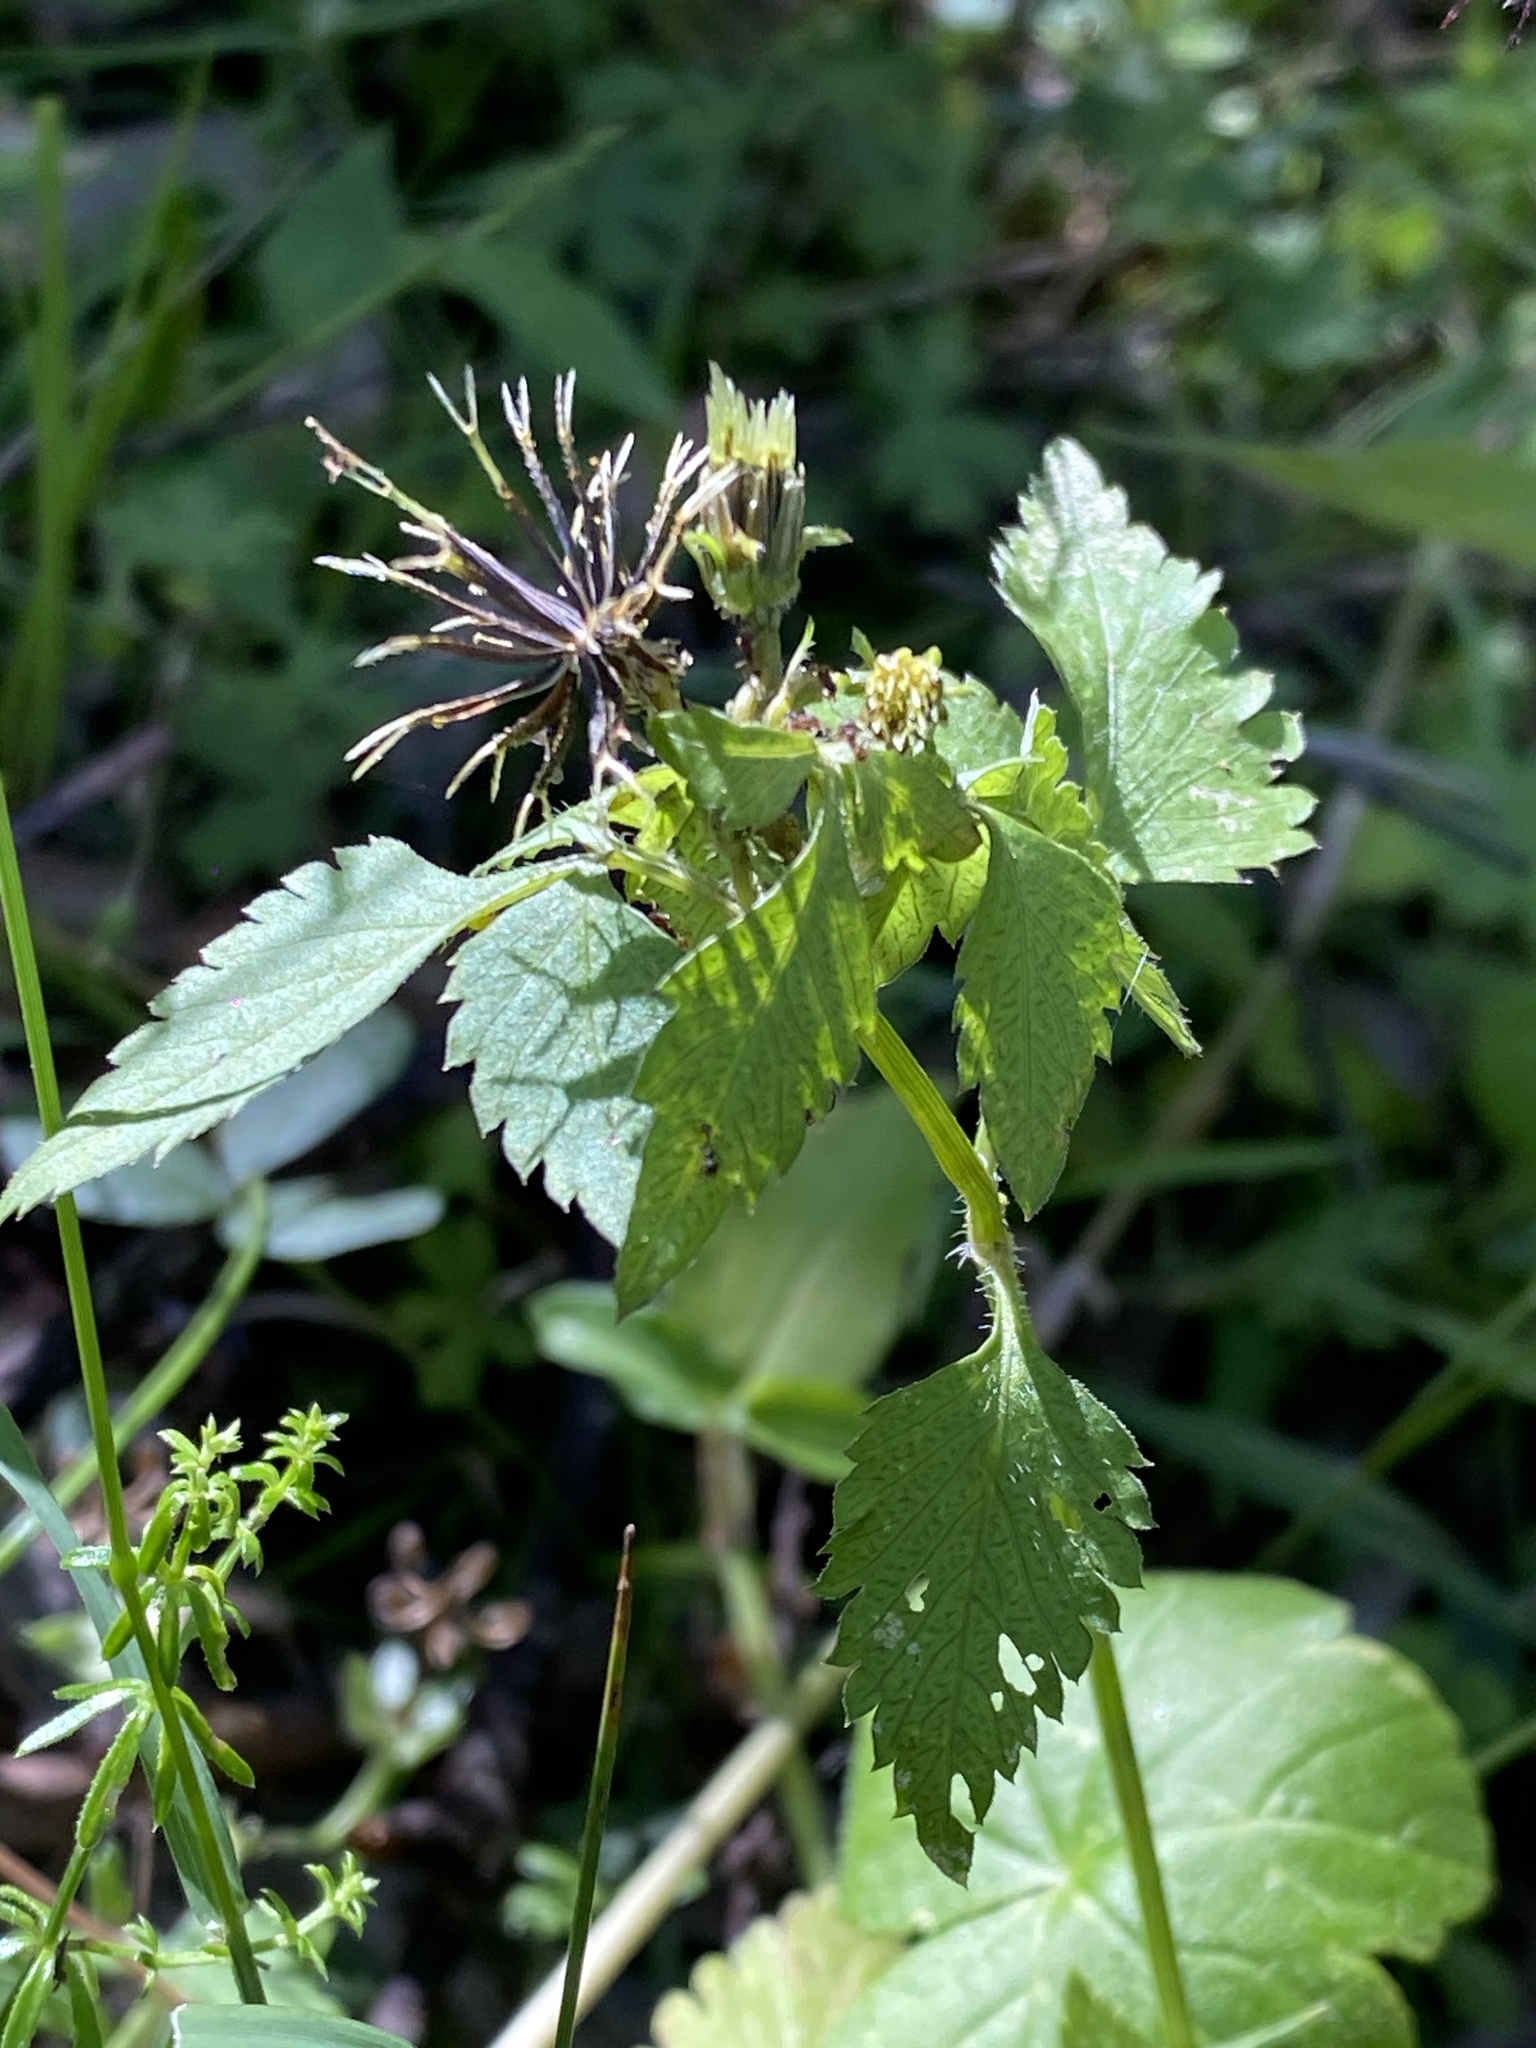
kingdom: Plantae
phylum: Tracheophyta
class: Magnoliopsida
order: Asterales
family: Asteraceae
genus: Bidens
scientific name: Bidens pilosa
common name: Black-jack
